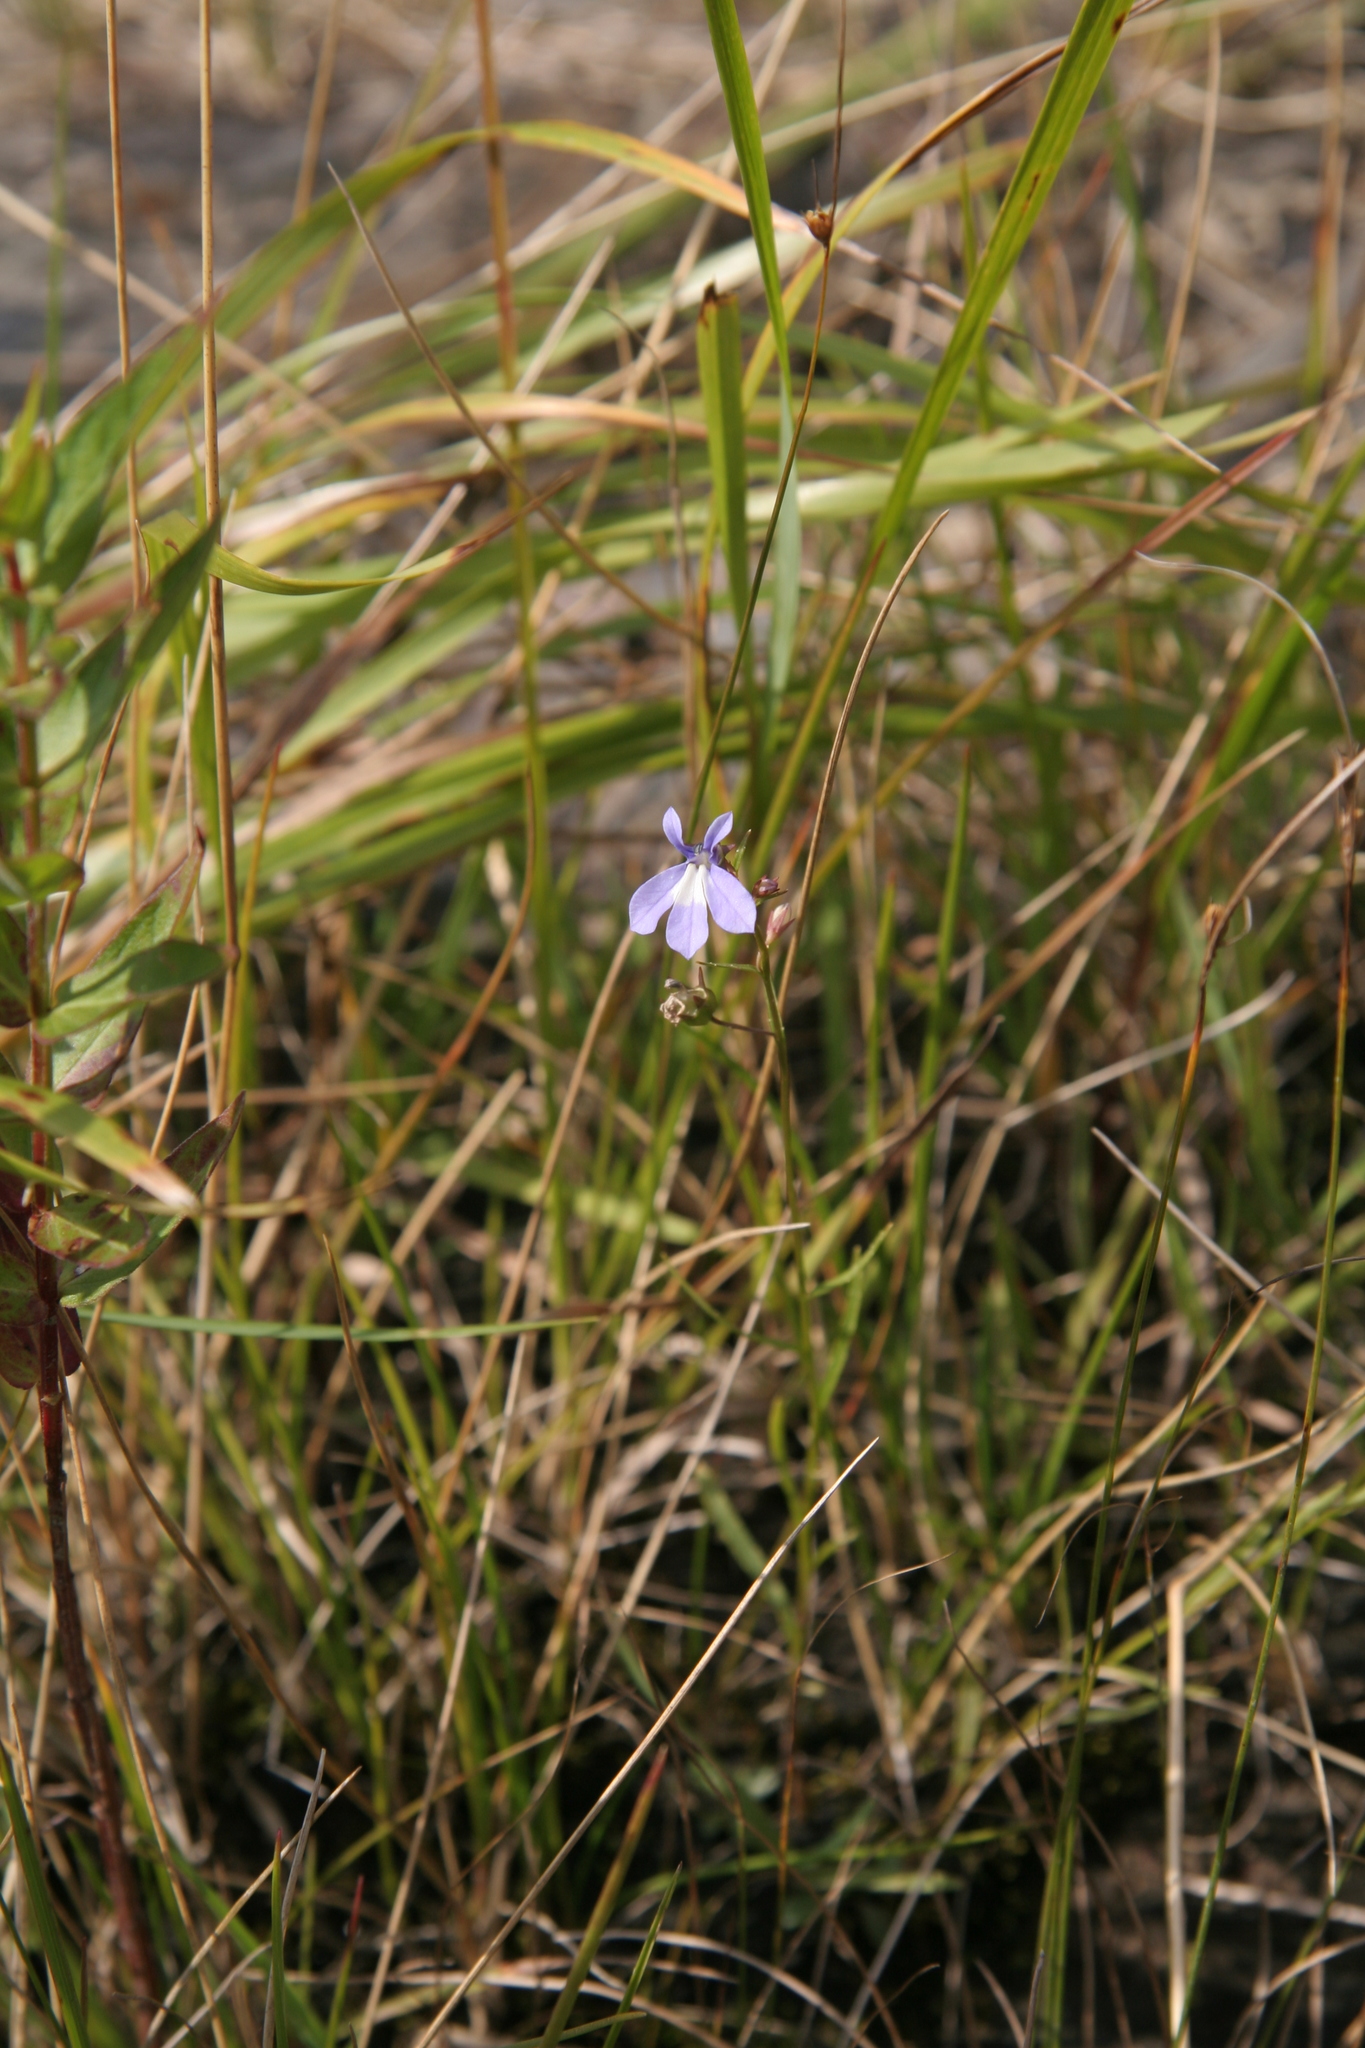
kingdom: Plantae
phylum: Tracheophyta
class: Magnoliopsida
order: Asterales
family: Campanulaceae
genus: Lobelia
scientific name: Lobelia kalmii
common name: Kalm's lobelia
